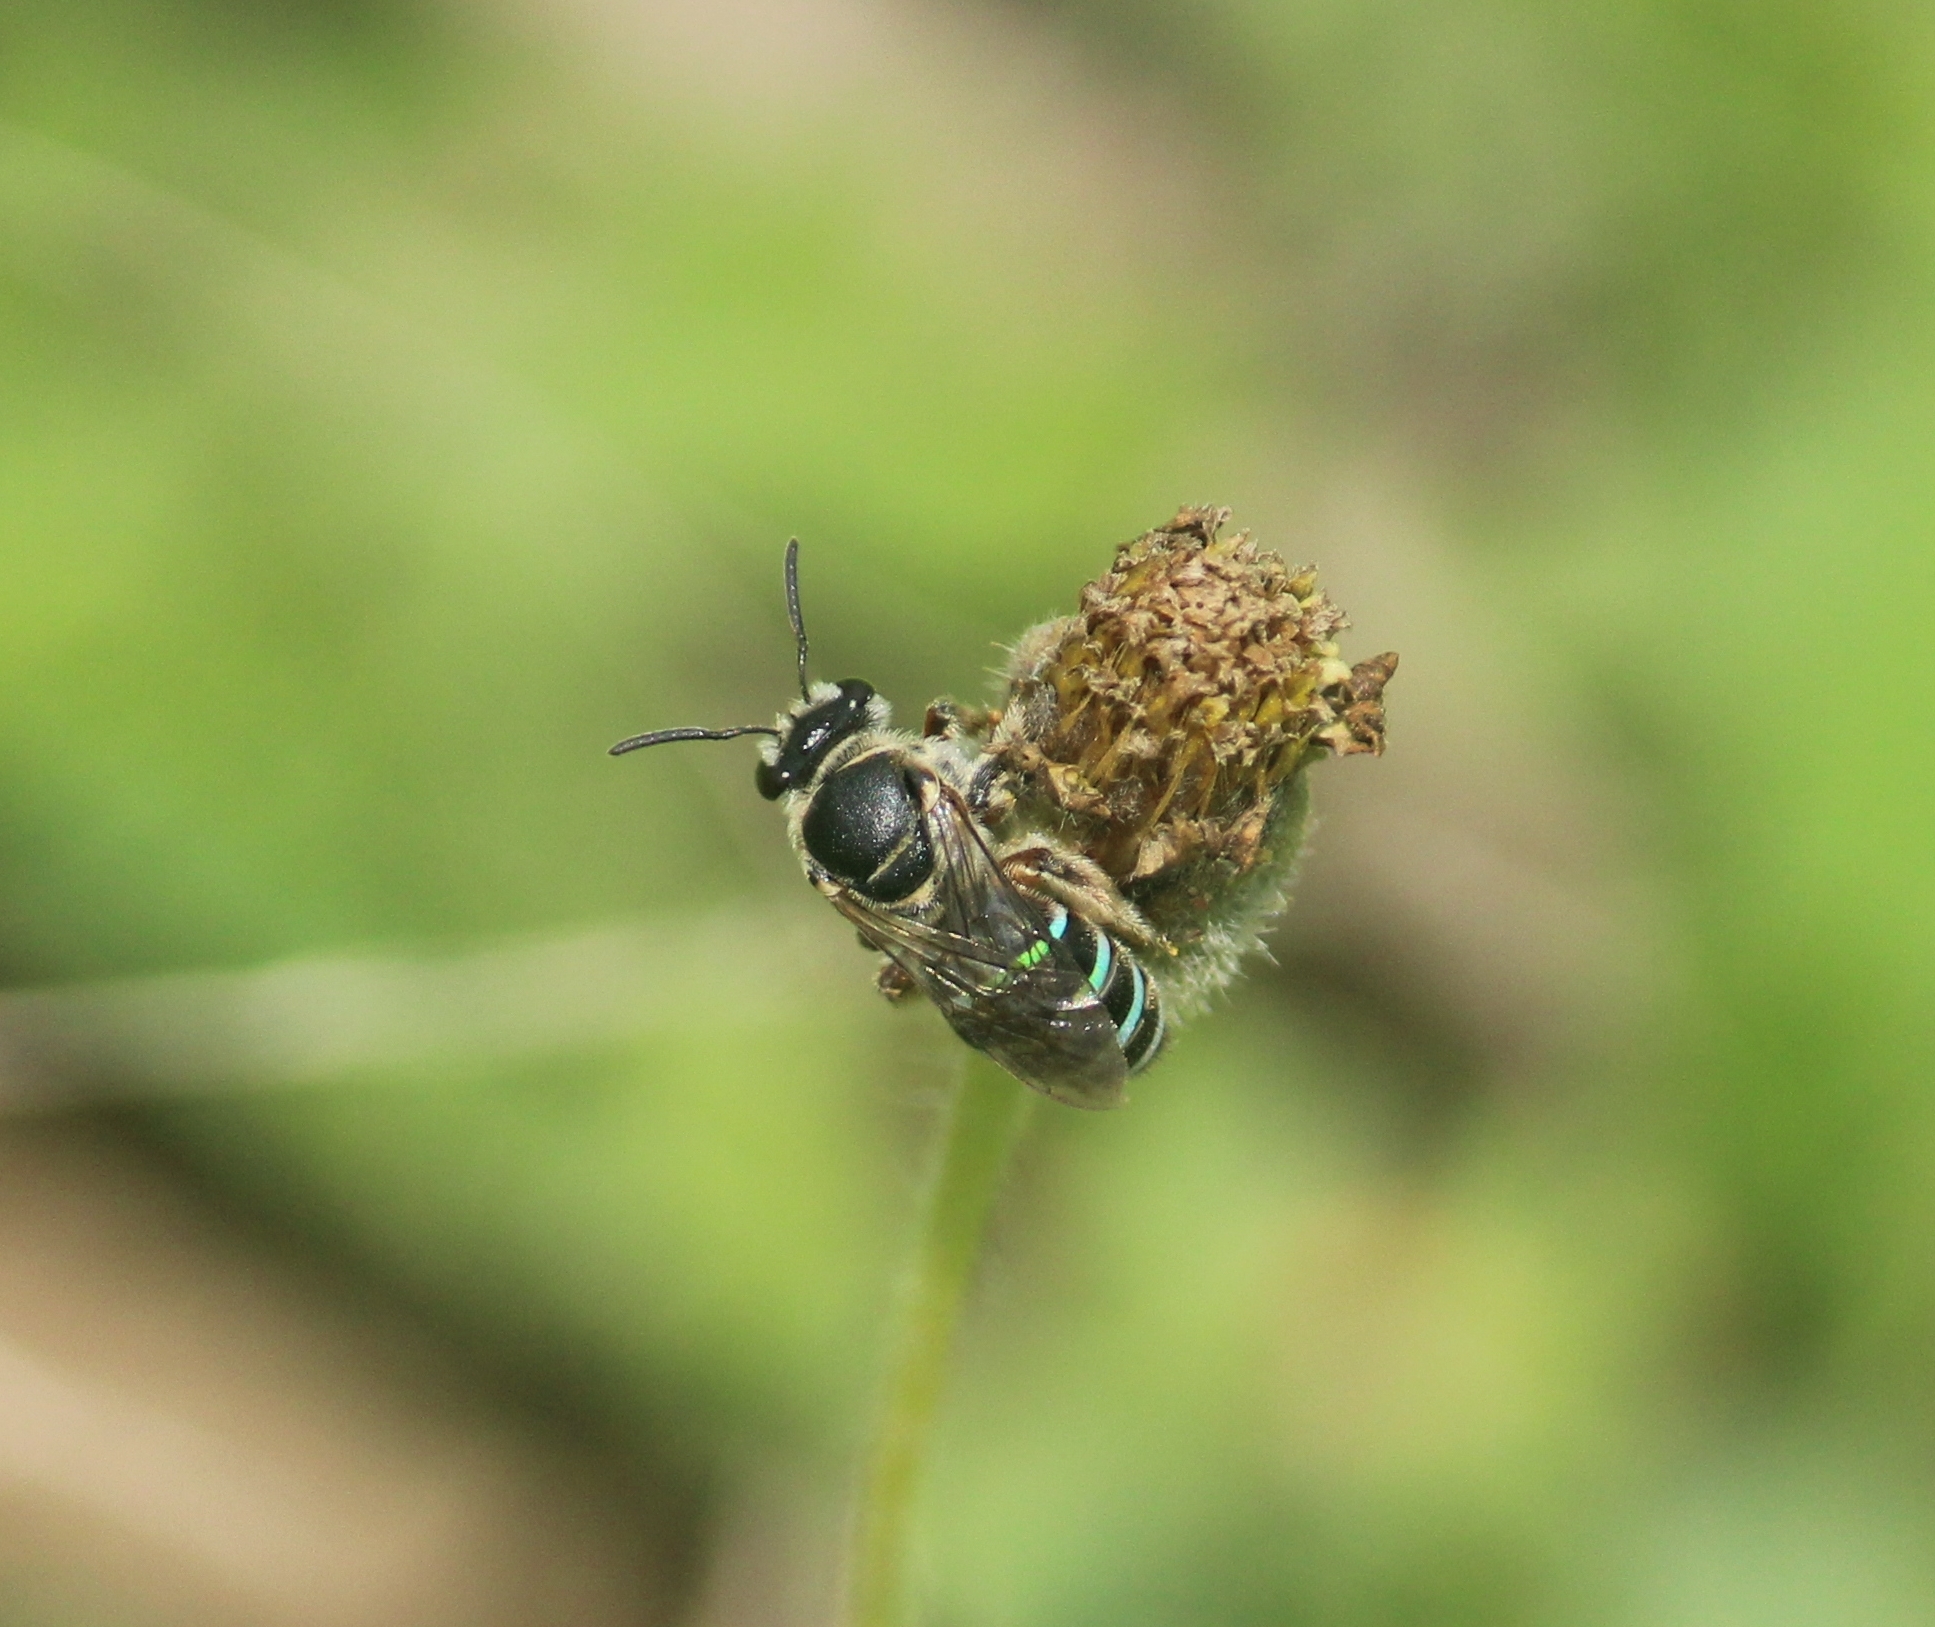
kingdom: Animalia
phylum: Arthropoda
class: Insecta
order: Hymenoptera
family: Halictidae
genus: Nomia
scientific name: Nomia westwoodi
